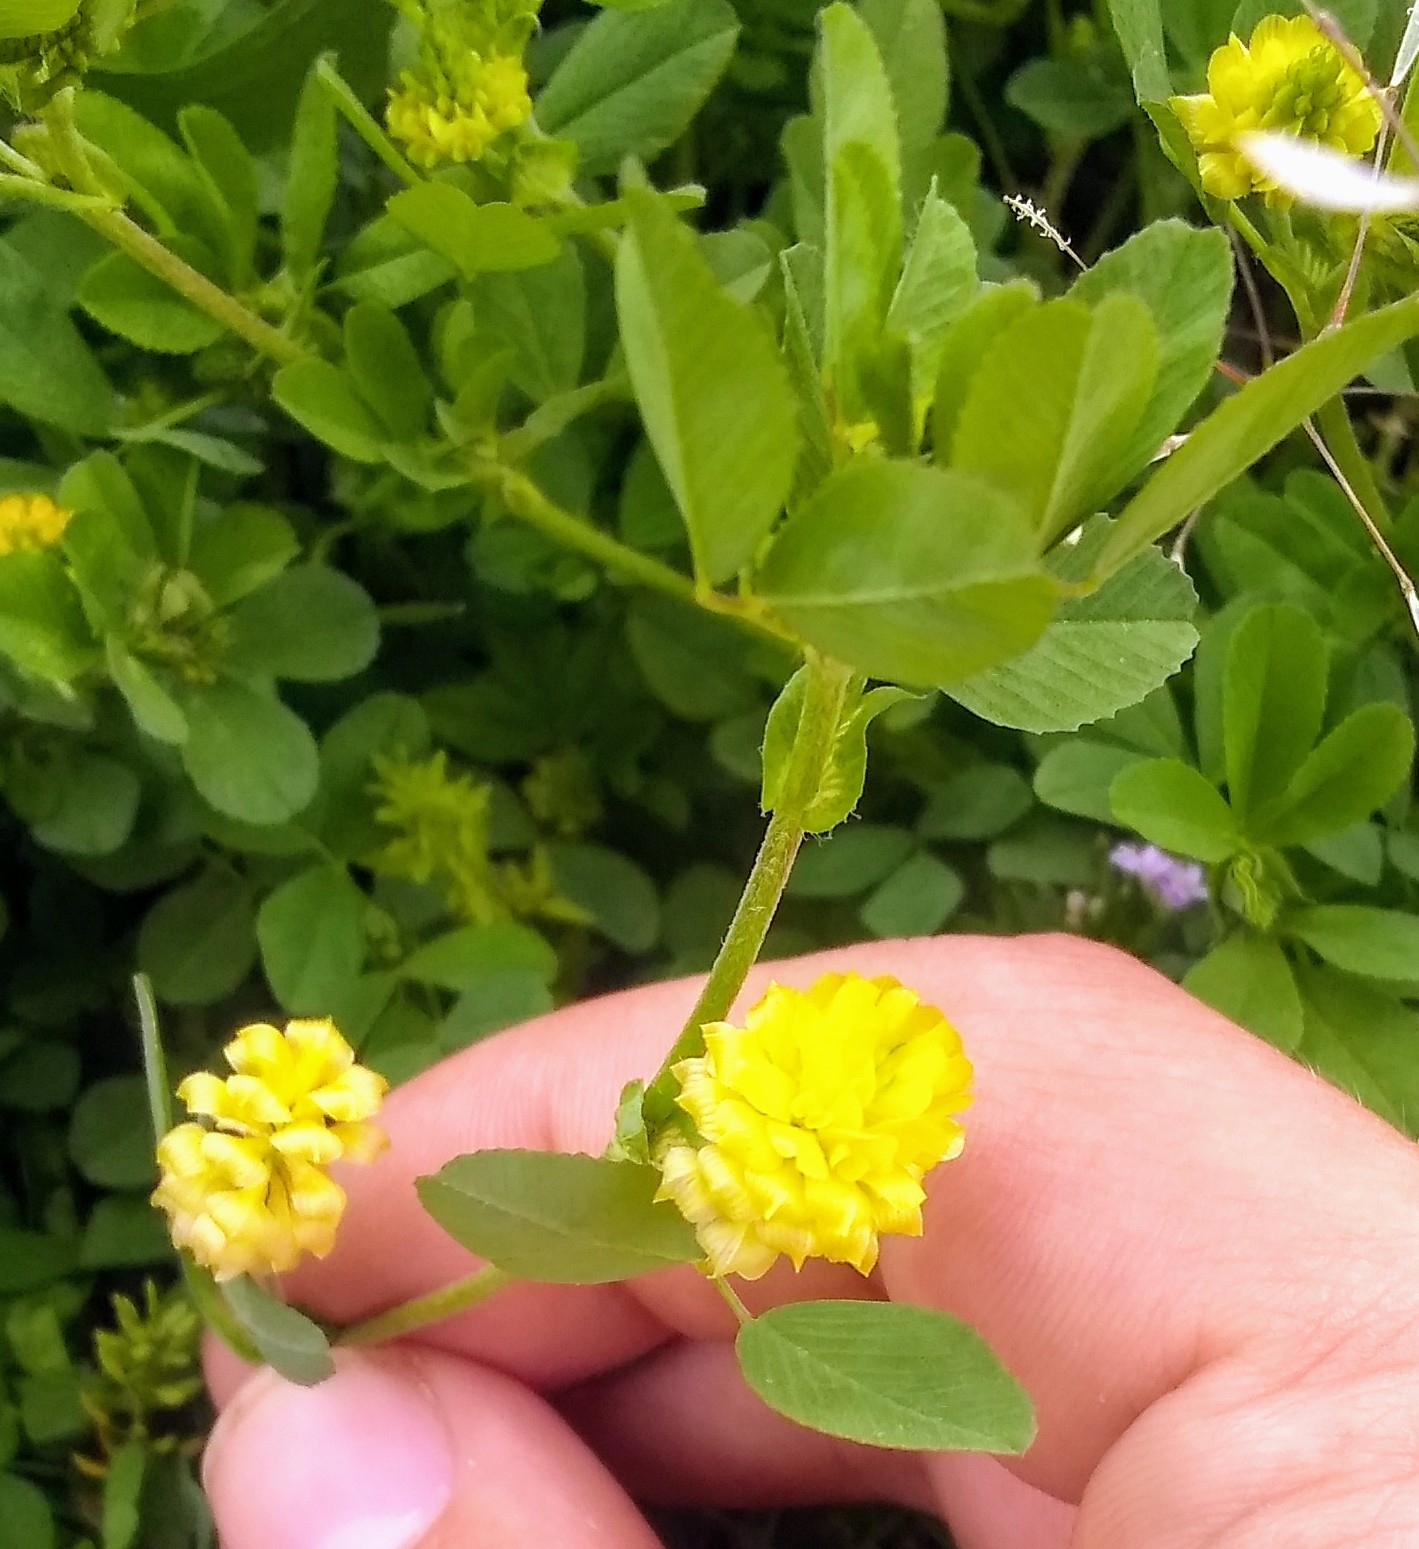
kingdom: Plantae
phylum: Tracheophyta
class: Magnoliopsida
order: Fabales
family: Fabaceae
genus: Trifolium
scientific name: Trifolium campestre
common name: Field clover
